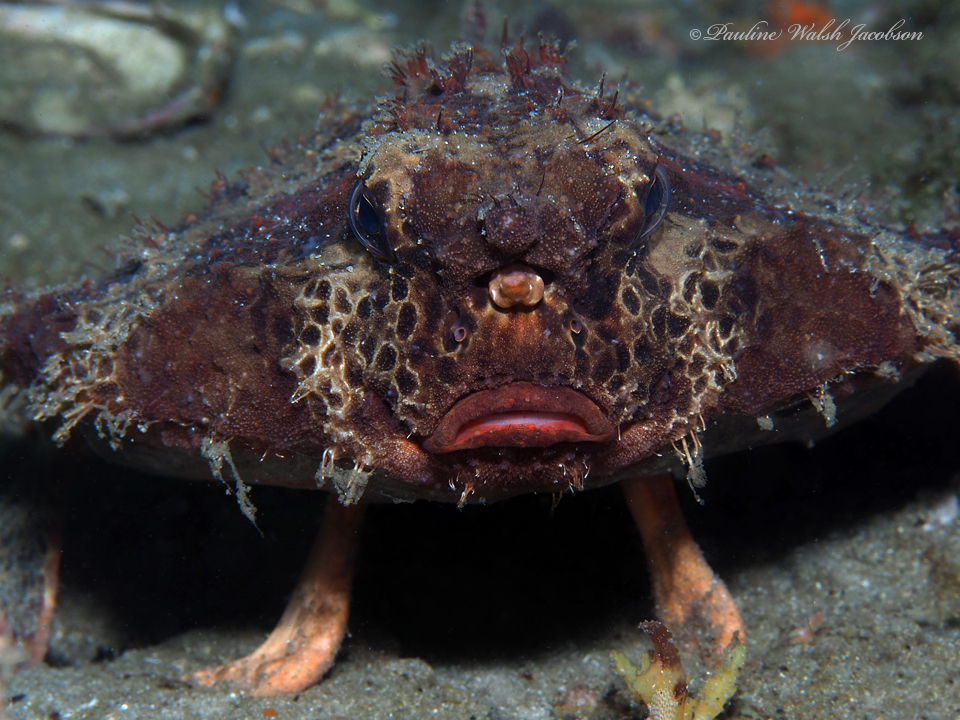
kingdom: Animalia
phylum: Chordata
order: Lophiiformes
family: Ogcocephalidae
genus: Ogcocephalus
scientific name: Ogcocephalus cubifrons
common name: Polka-dot batfish
